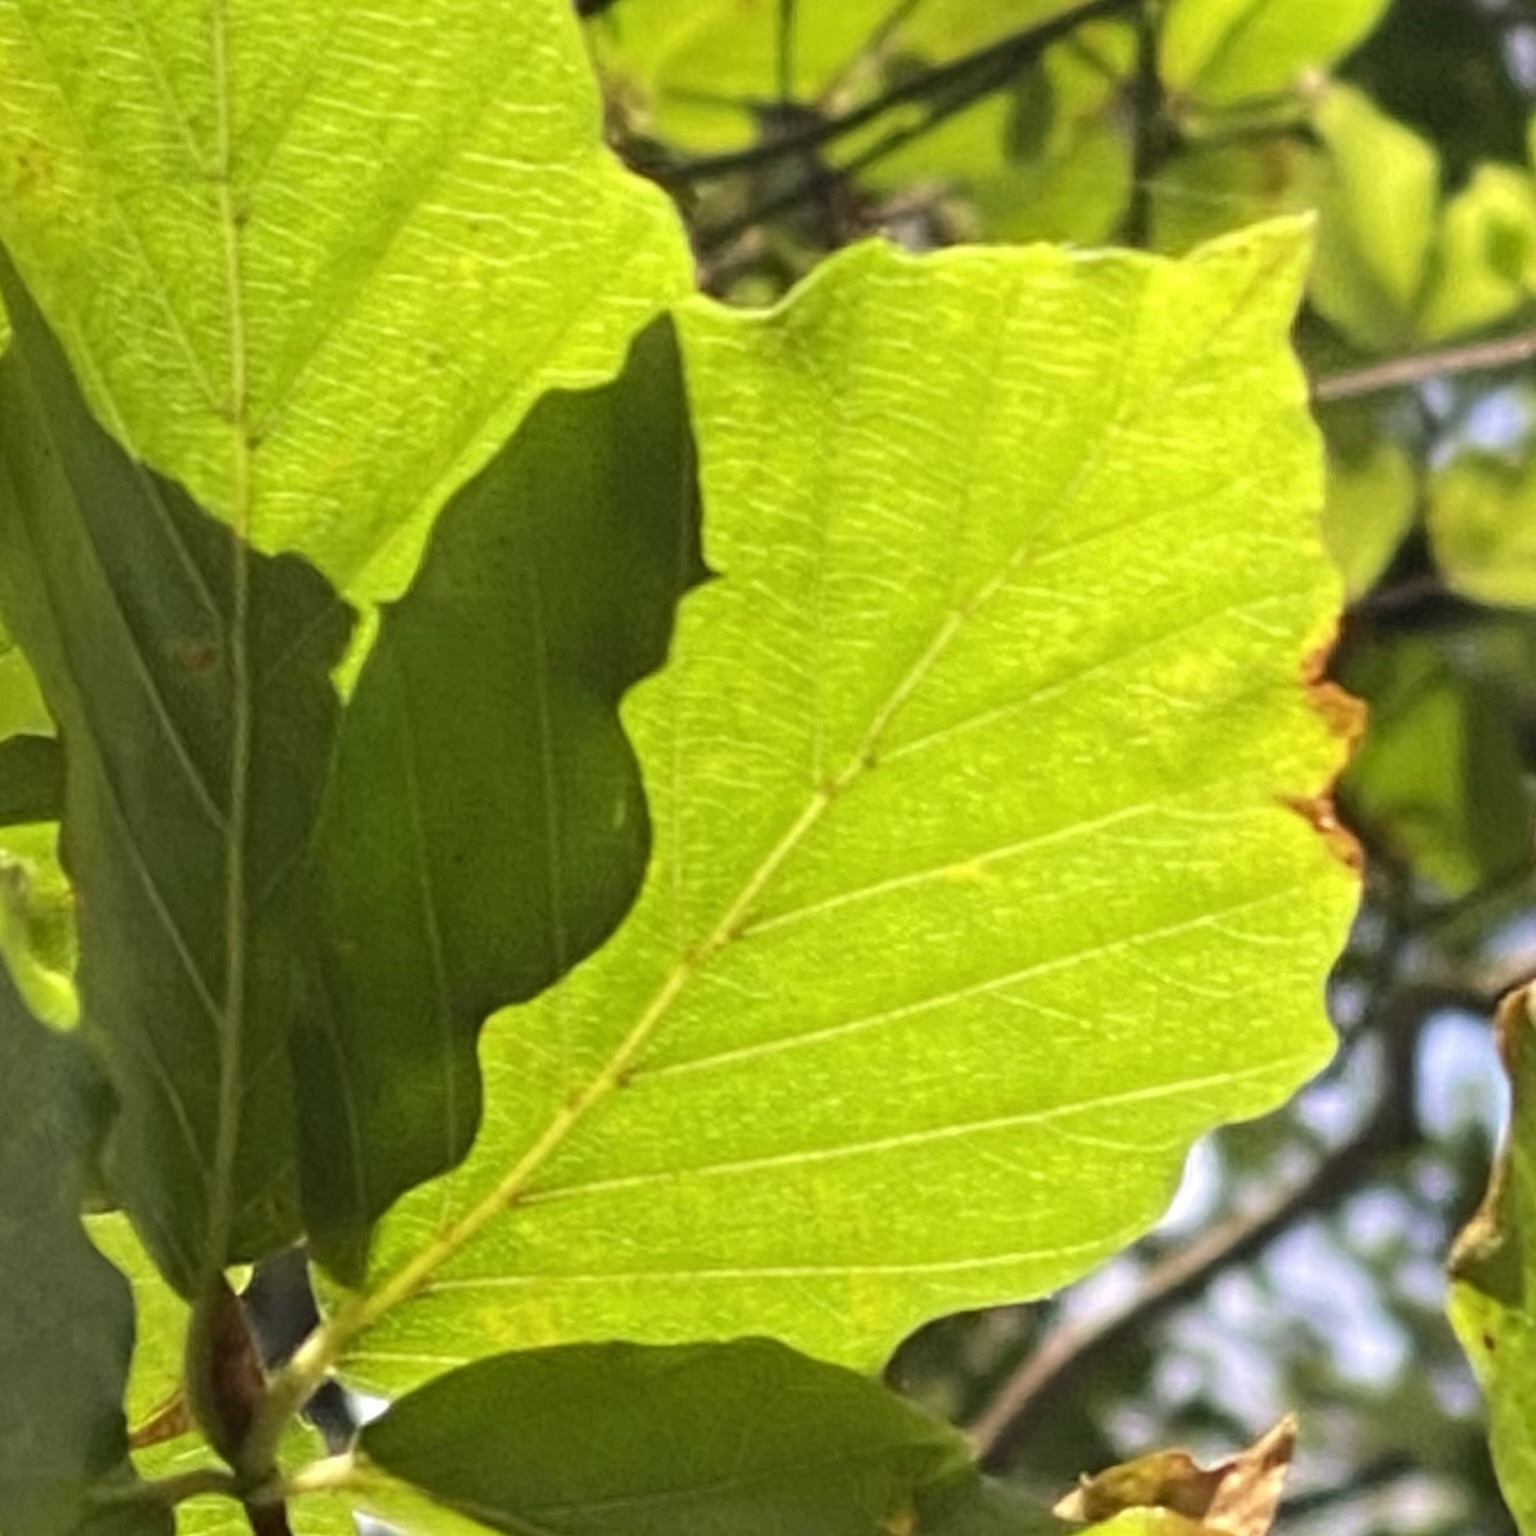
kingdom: Plantae
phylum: Tracheophyta
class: Magnoliopsida
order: Fagales
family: Fagaceae
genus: Fagus
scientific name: Fagus sylvatica
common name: Beech
